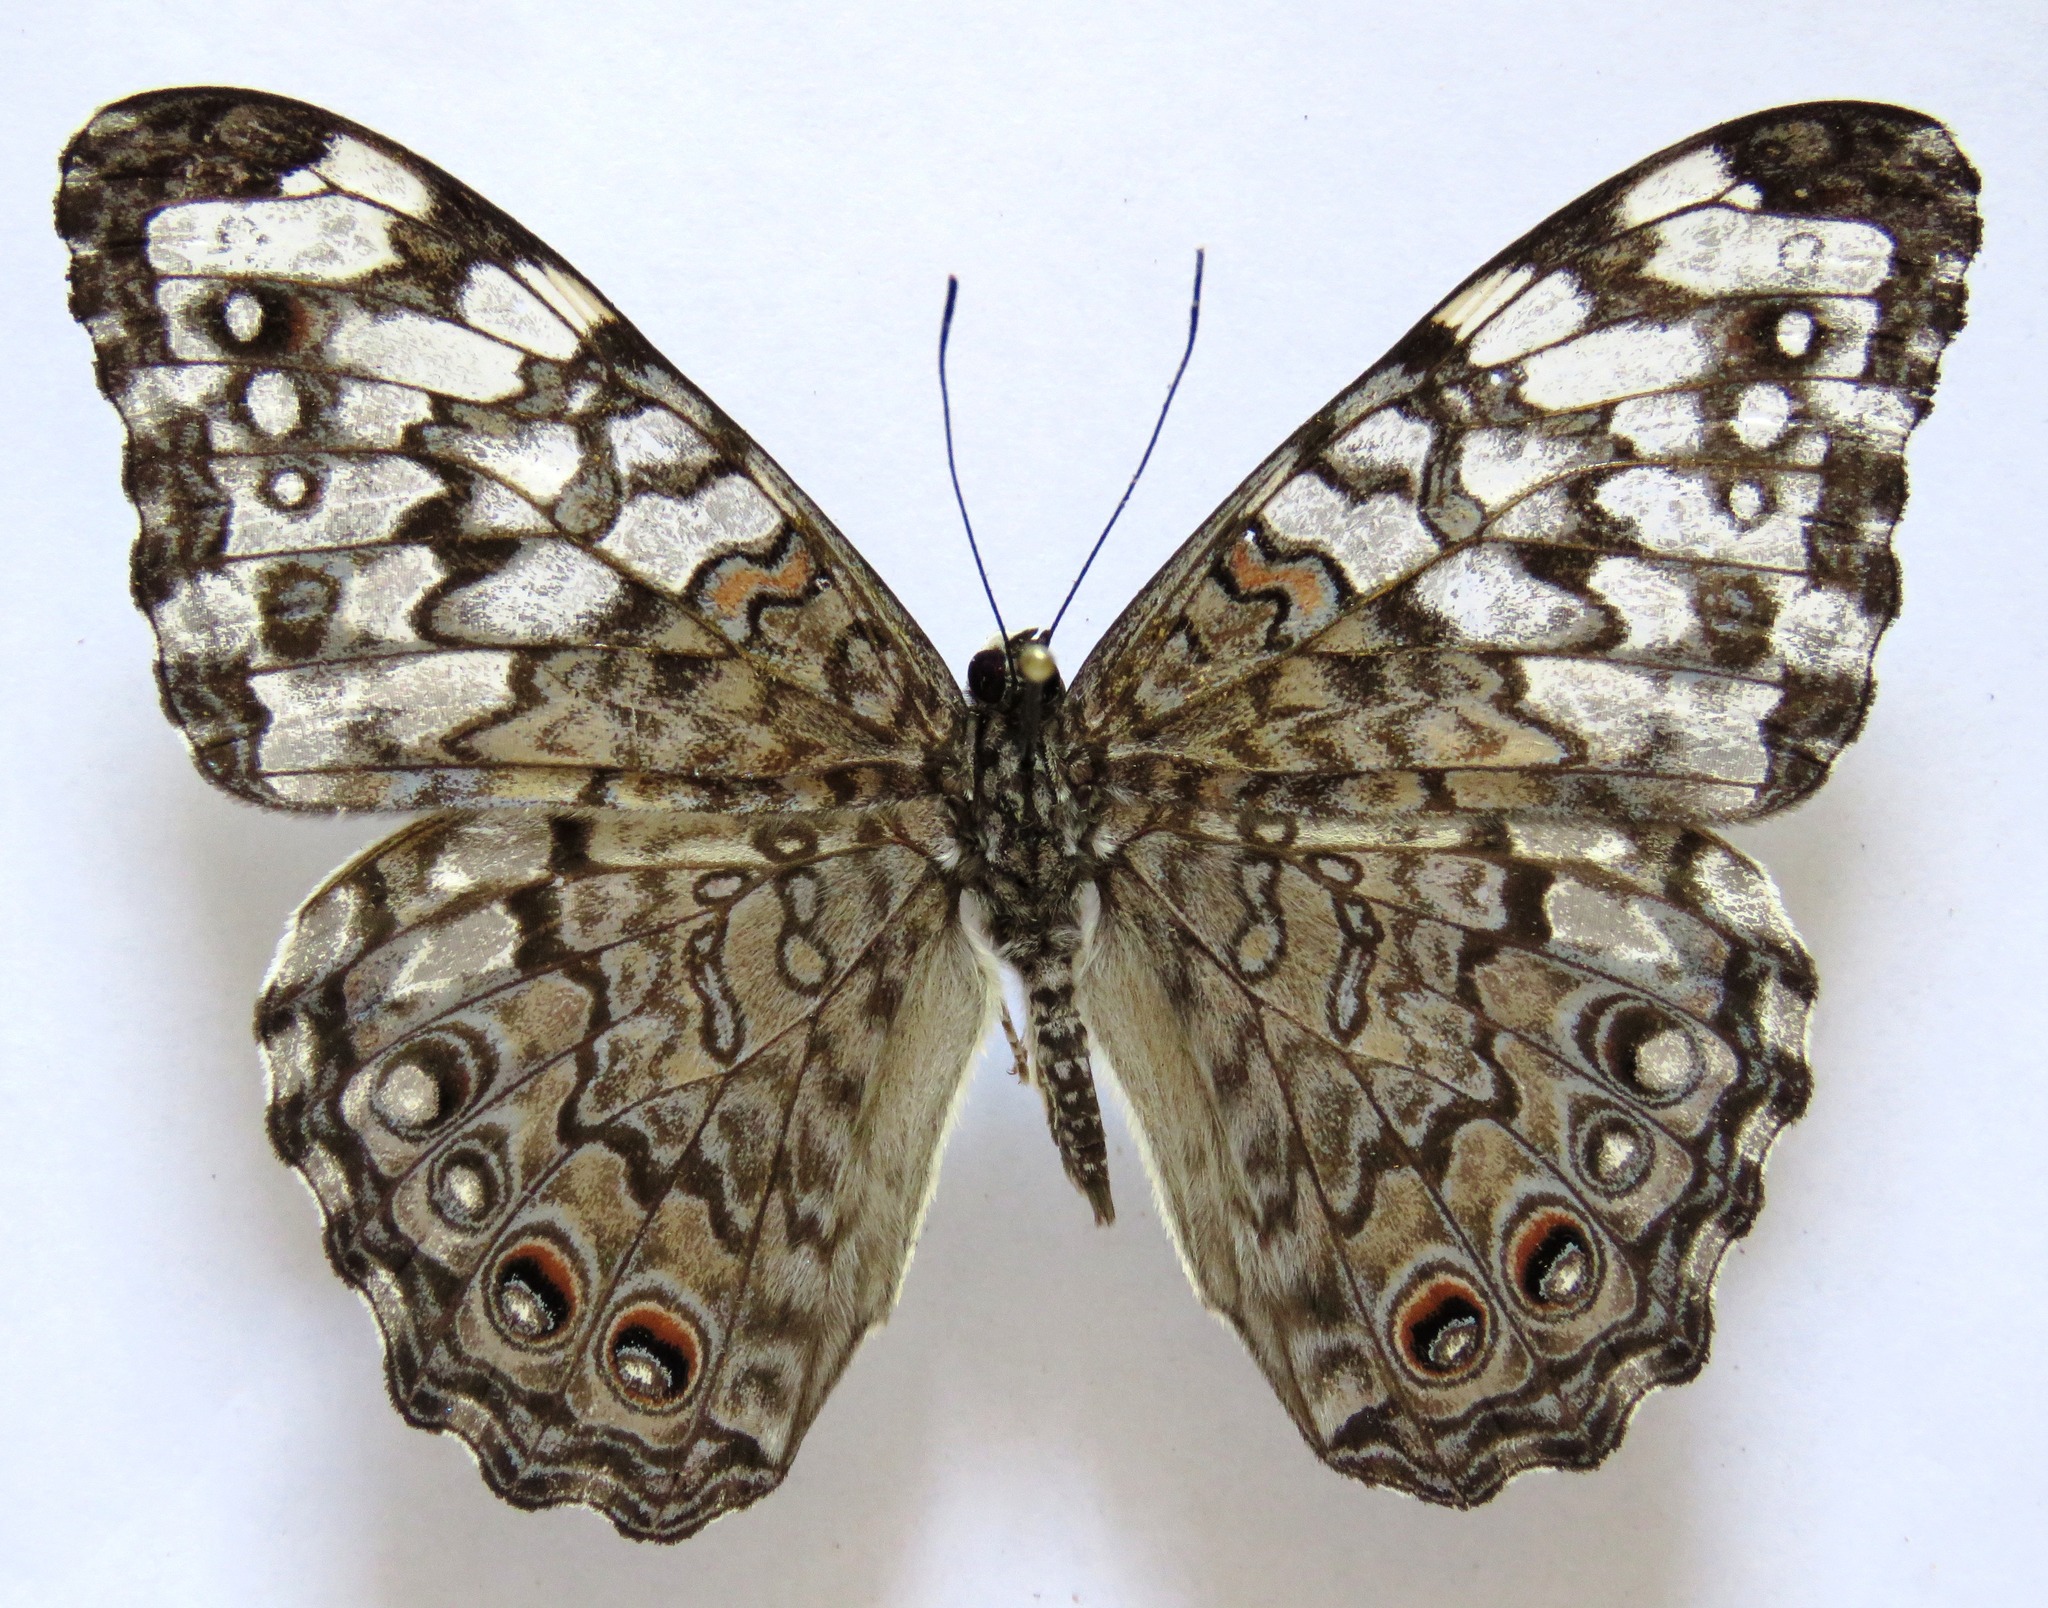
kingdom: Animalia
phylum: Arthropoda
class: Insecta
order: Lepidoptera
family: Nymphalidae
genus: Hamadryas
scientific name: Hamadryas februa
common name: Gray cracker
